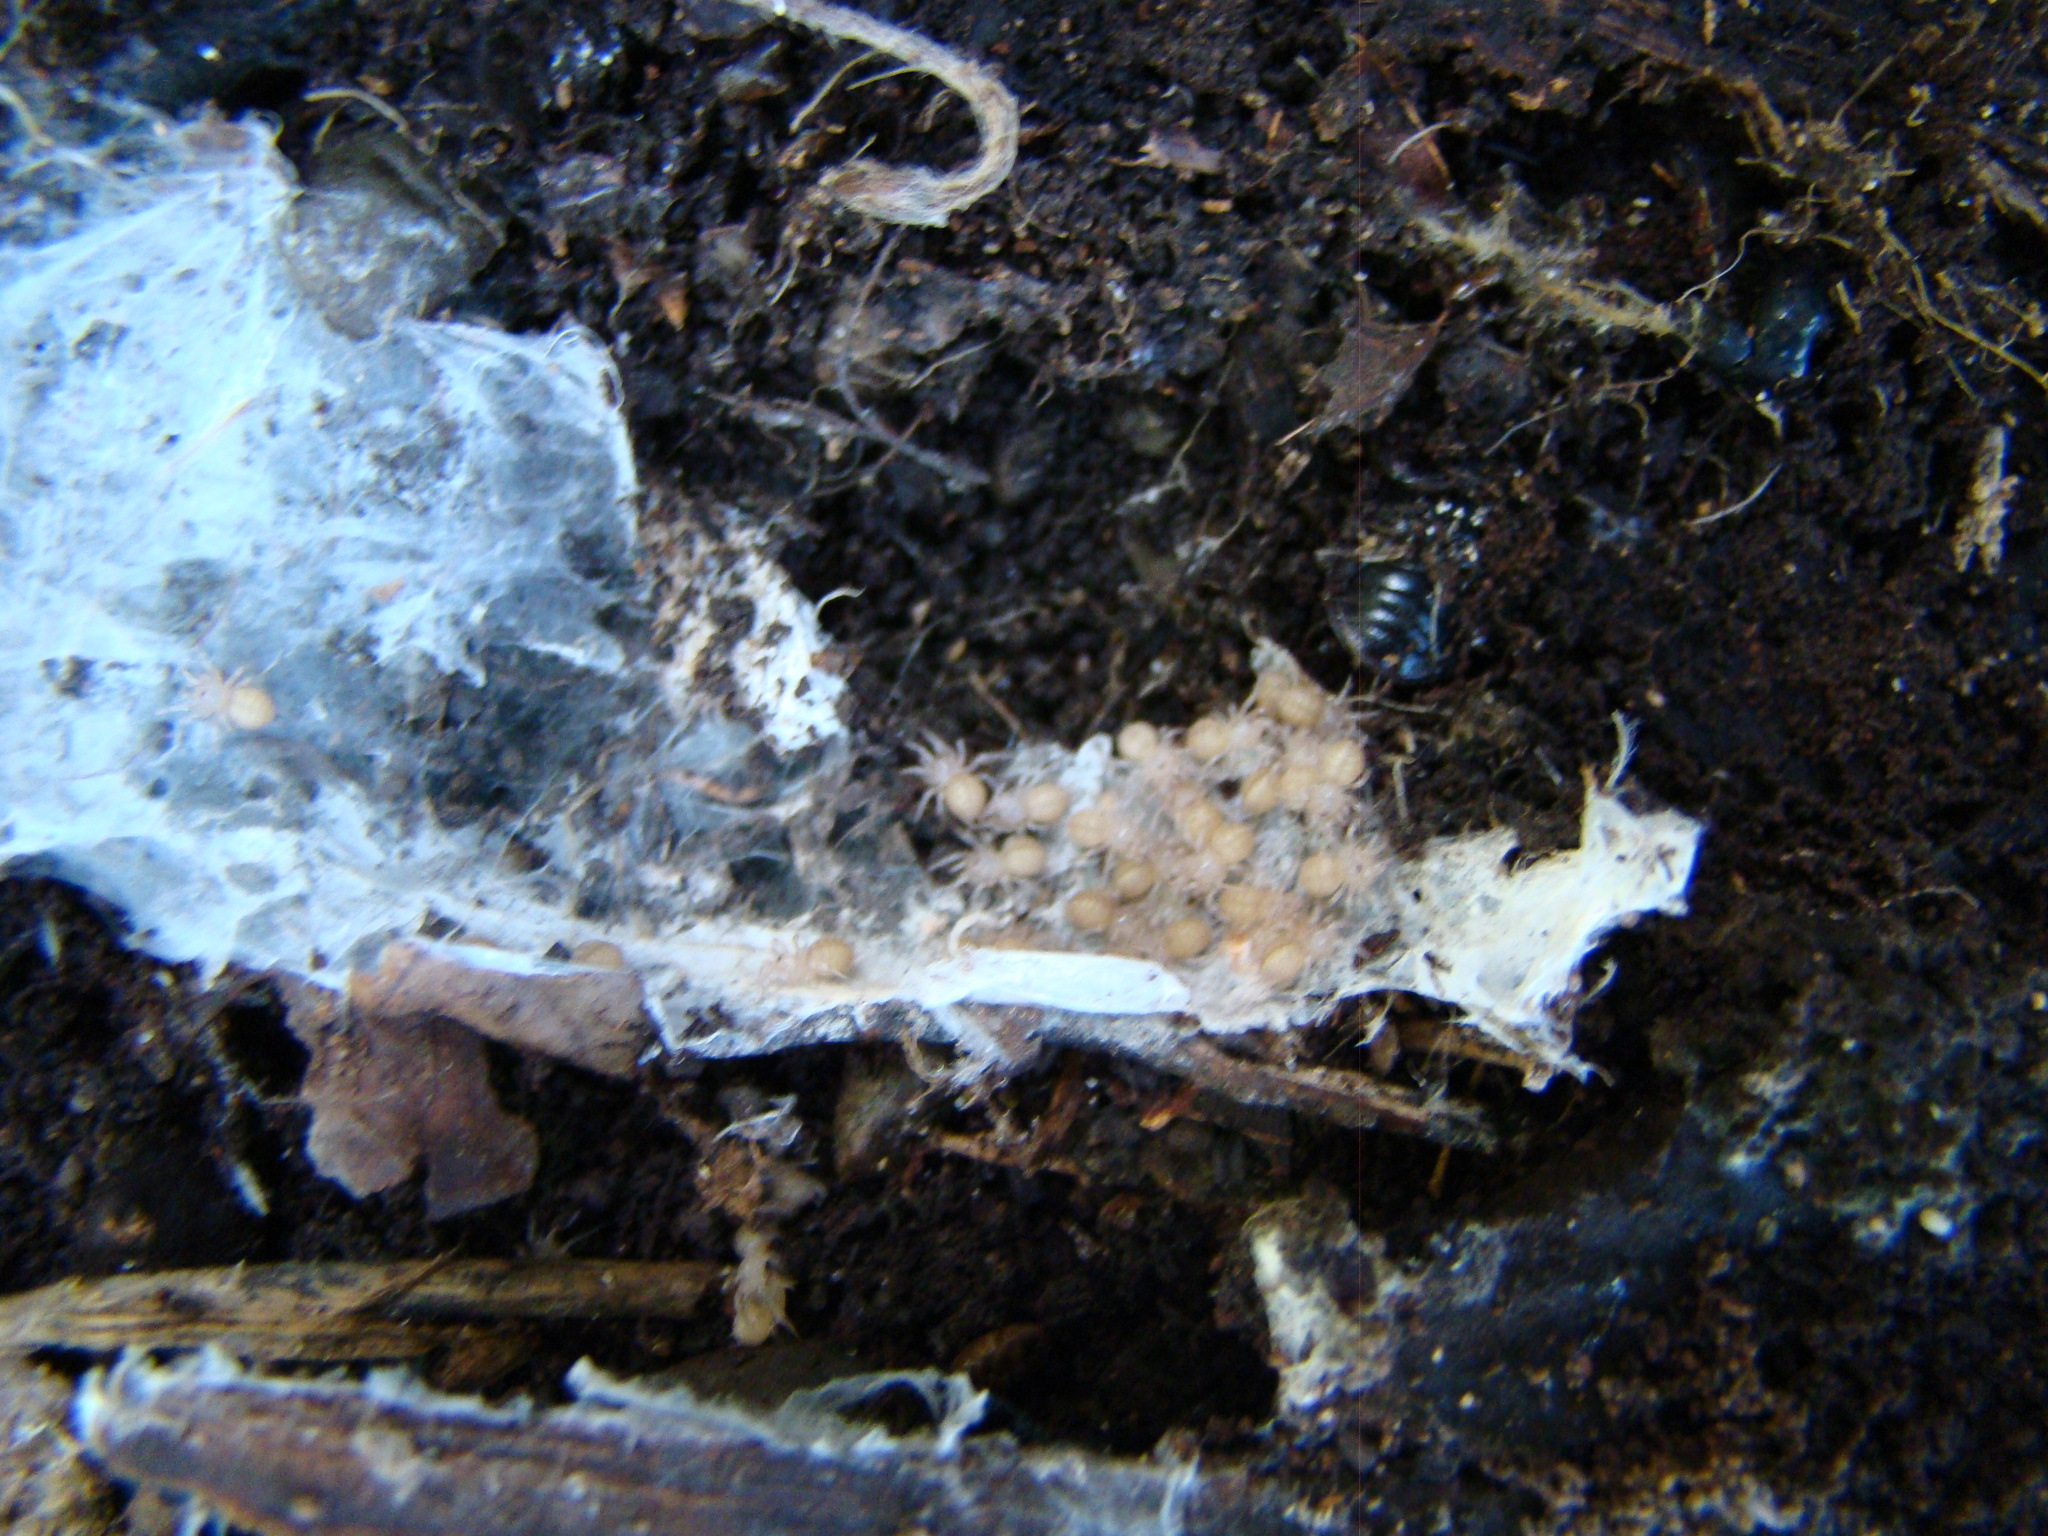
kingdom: Animalia
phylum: Arthropoda
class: Arachnida
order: Araneae
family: Porrhothelidae
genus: Porrhothele
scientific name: Porrhothele antipodiana
